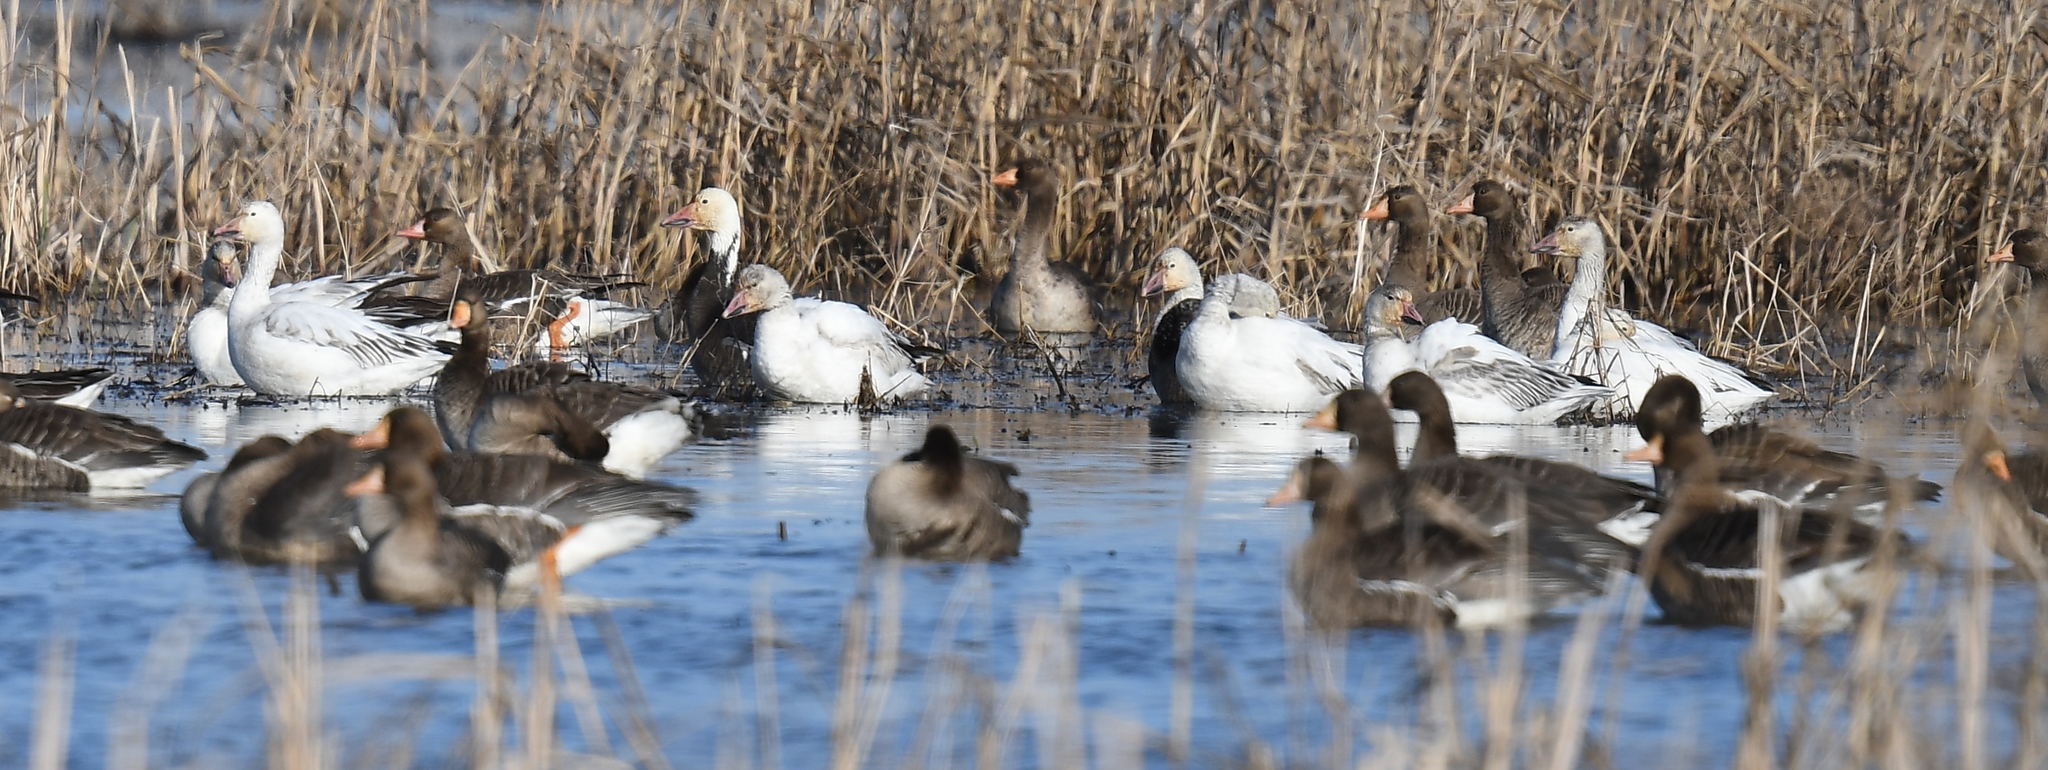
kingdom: Animalia
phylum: Chordata
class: Aves
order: Anseriformes
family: Anatidae
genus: Anser
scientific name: Anser caerulescens
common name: Snow goose
